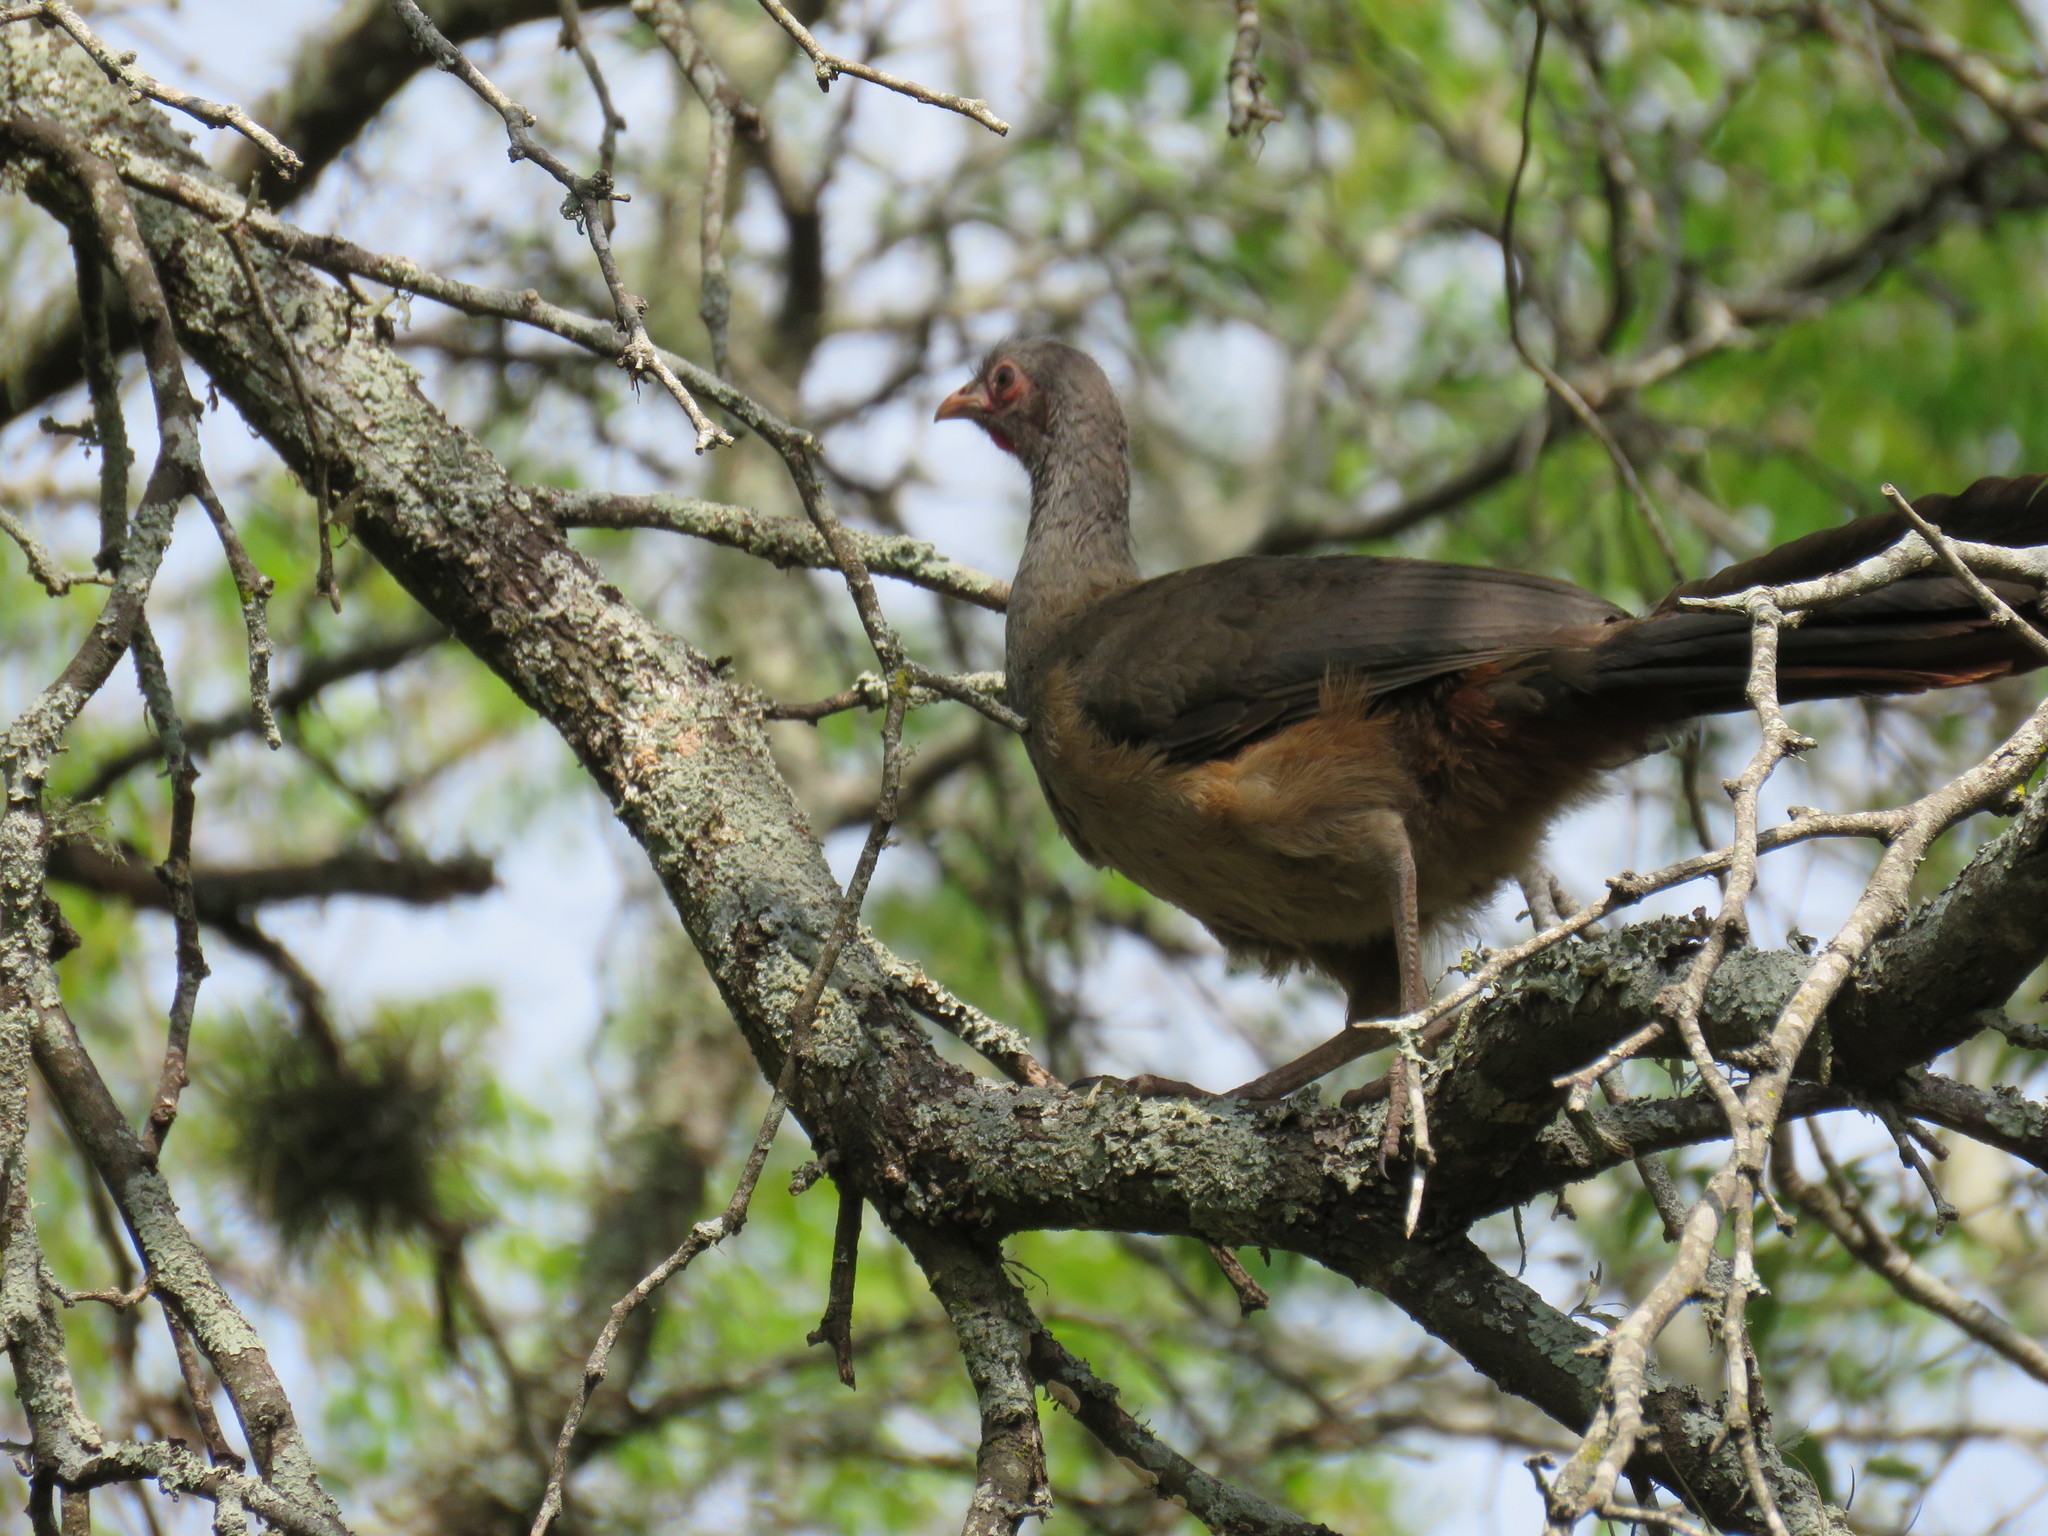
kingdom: Animalia
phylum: Chordata
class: Aves
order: Galliformes
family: Cracidae
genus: Ortalis
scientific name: Ortalis canicollis
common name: Chaco chachalaca
